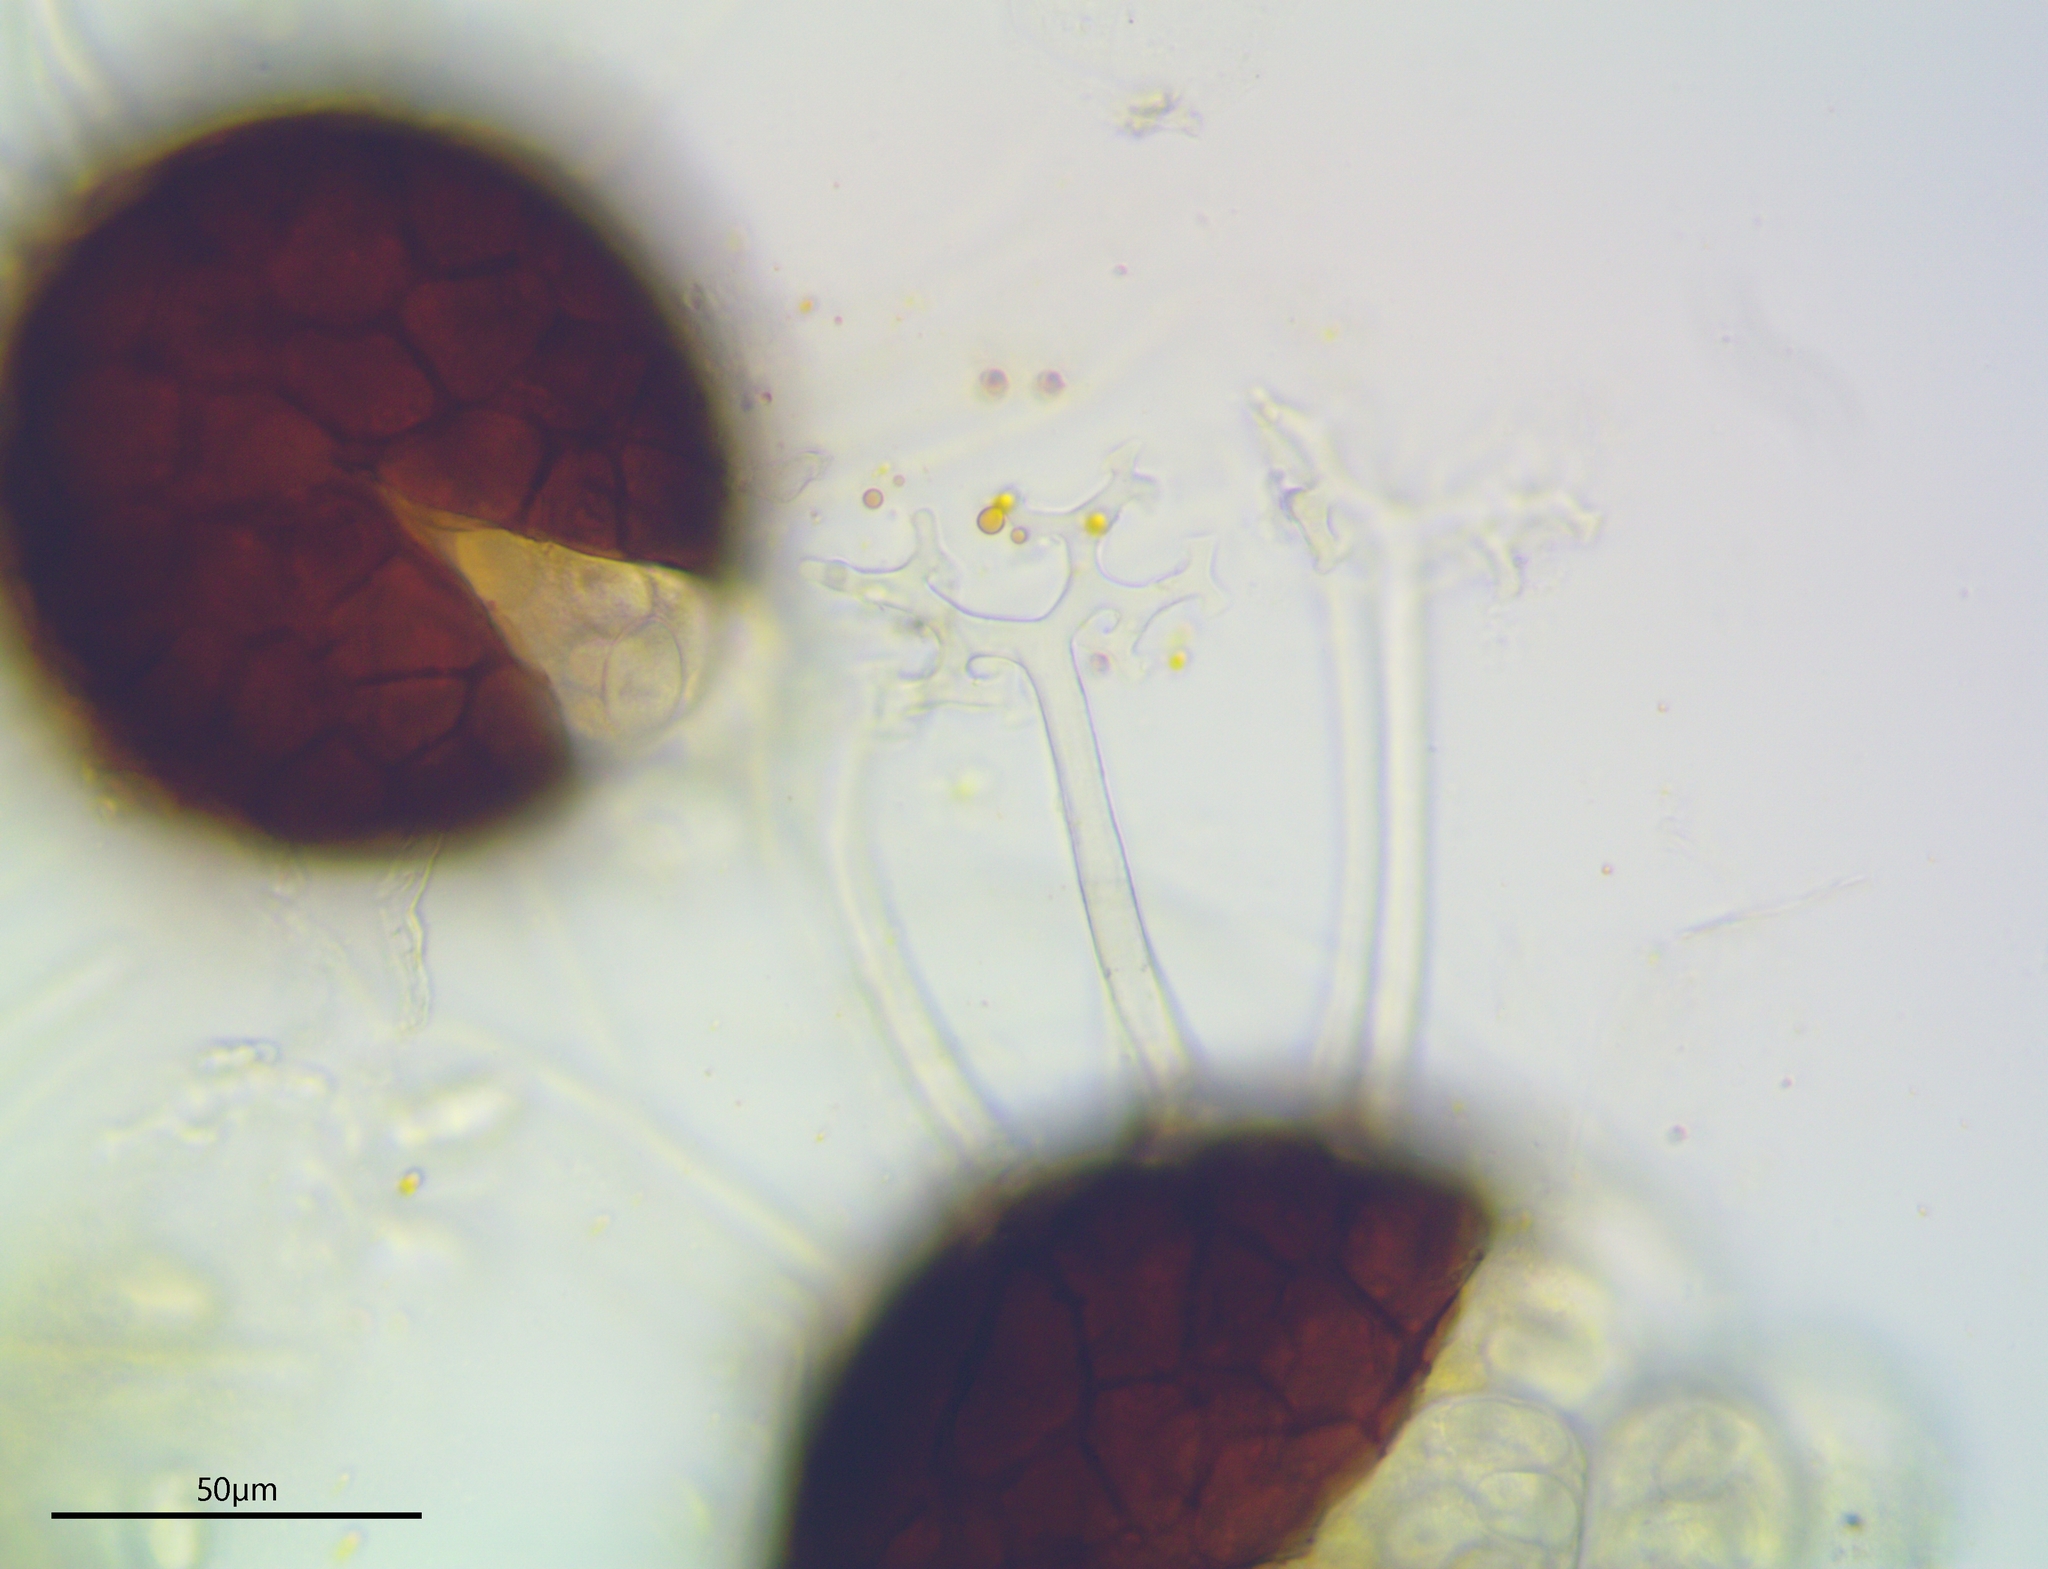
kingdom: Fungi
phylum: Ascomycota
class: Leotiomycetes
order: Helotiales
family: Erysiphaceae
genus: Erysiphe
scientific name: Erysiphe alphitoides
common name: Oak mildew
